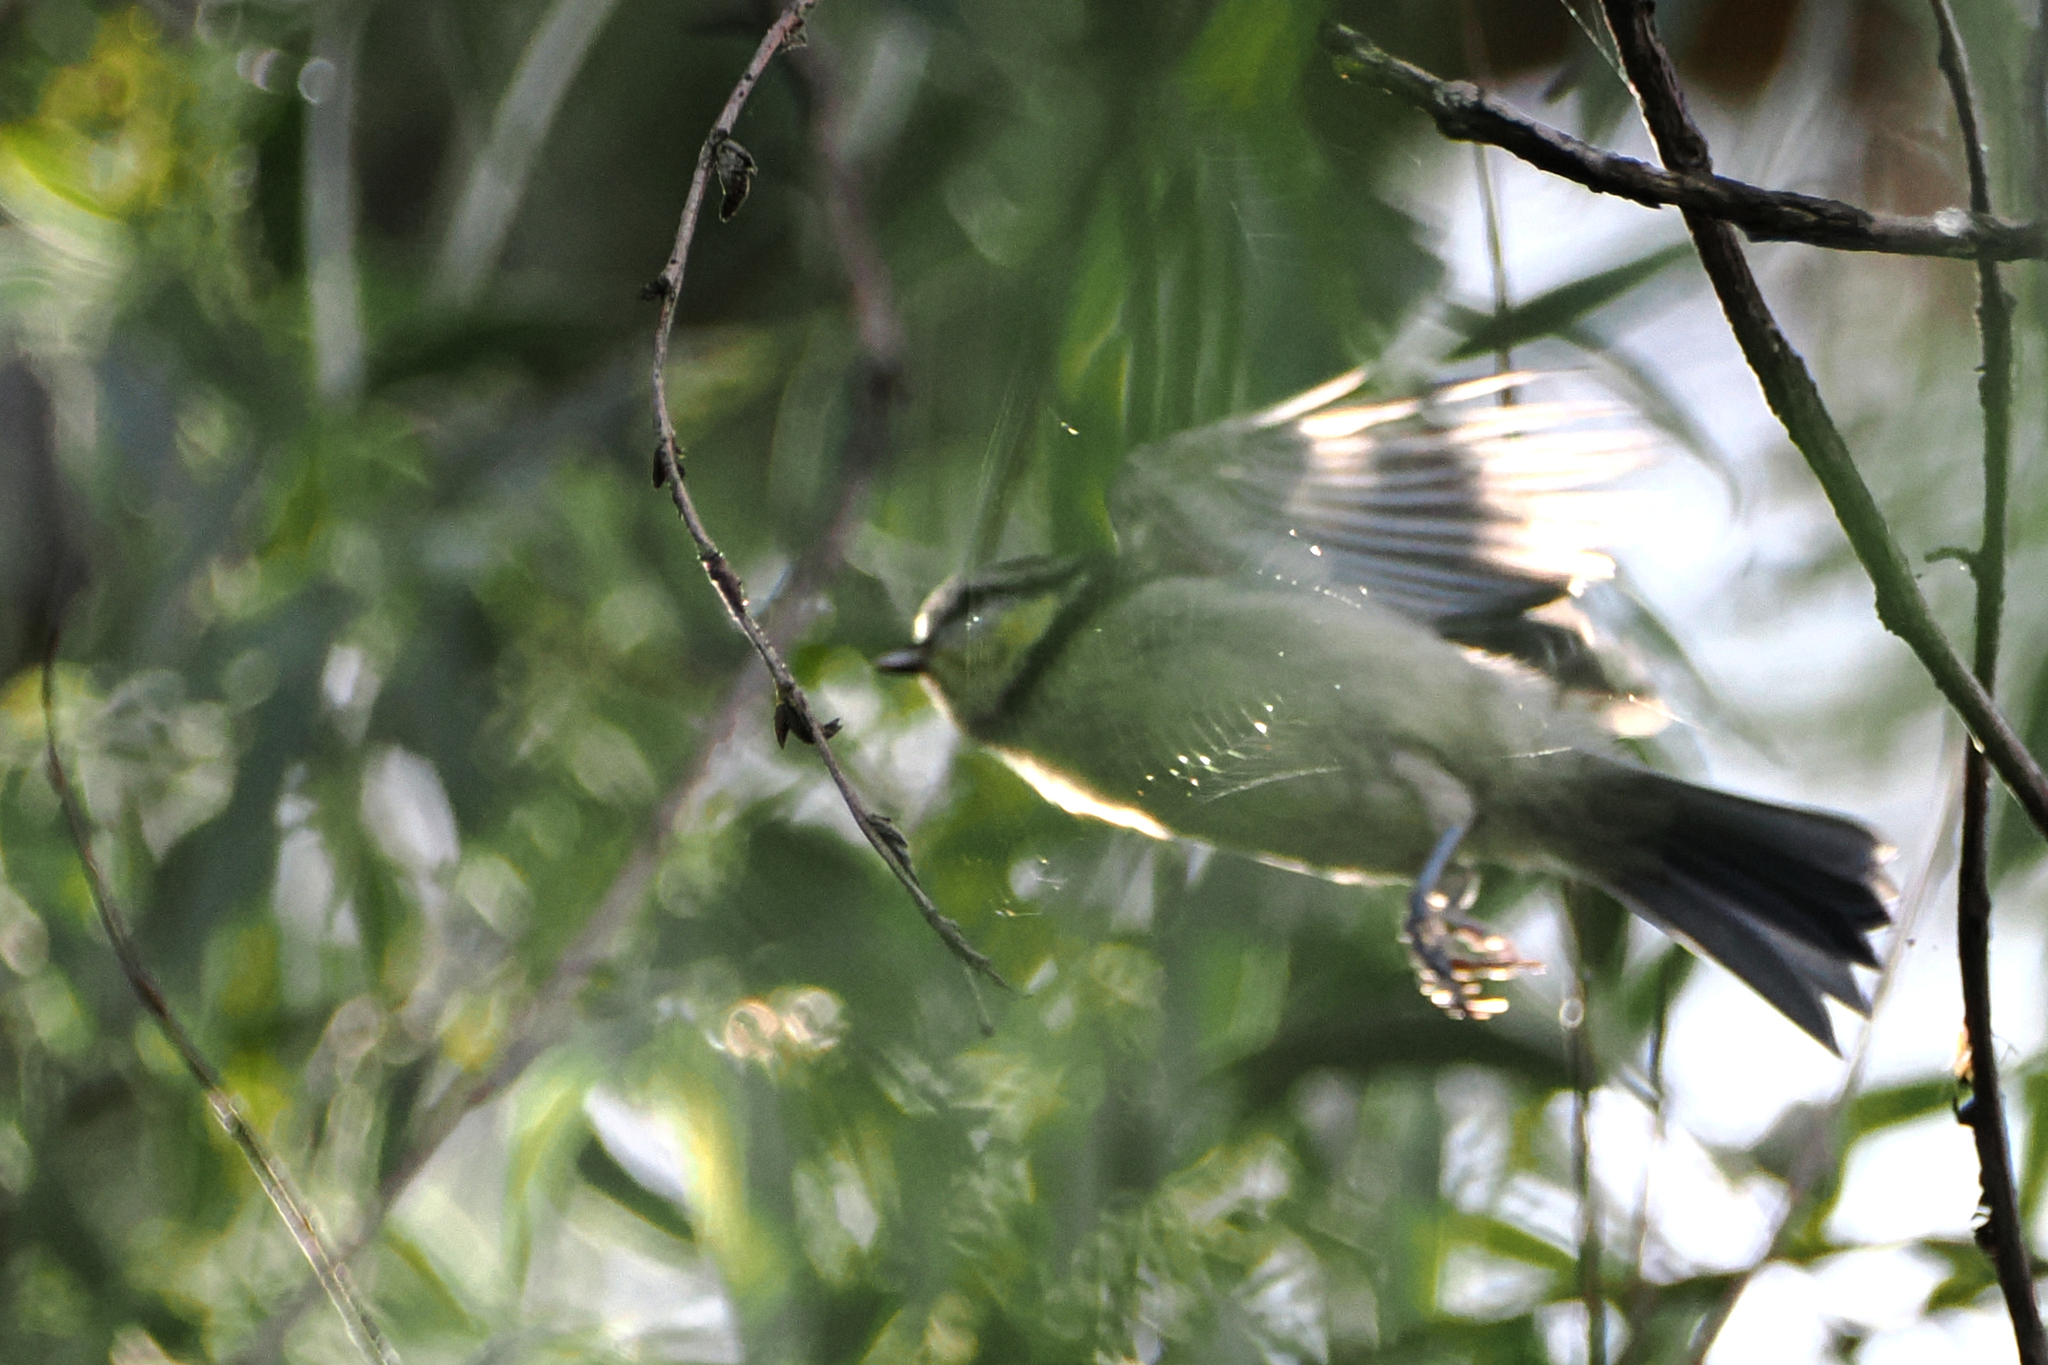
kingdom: Animalia
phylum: Chordata
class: Aves
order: Passeriformes
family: Paridae
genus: Cyanistes
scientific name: Cyanistes caeruleus
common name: Eurasian blue tit
